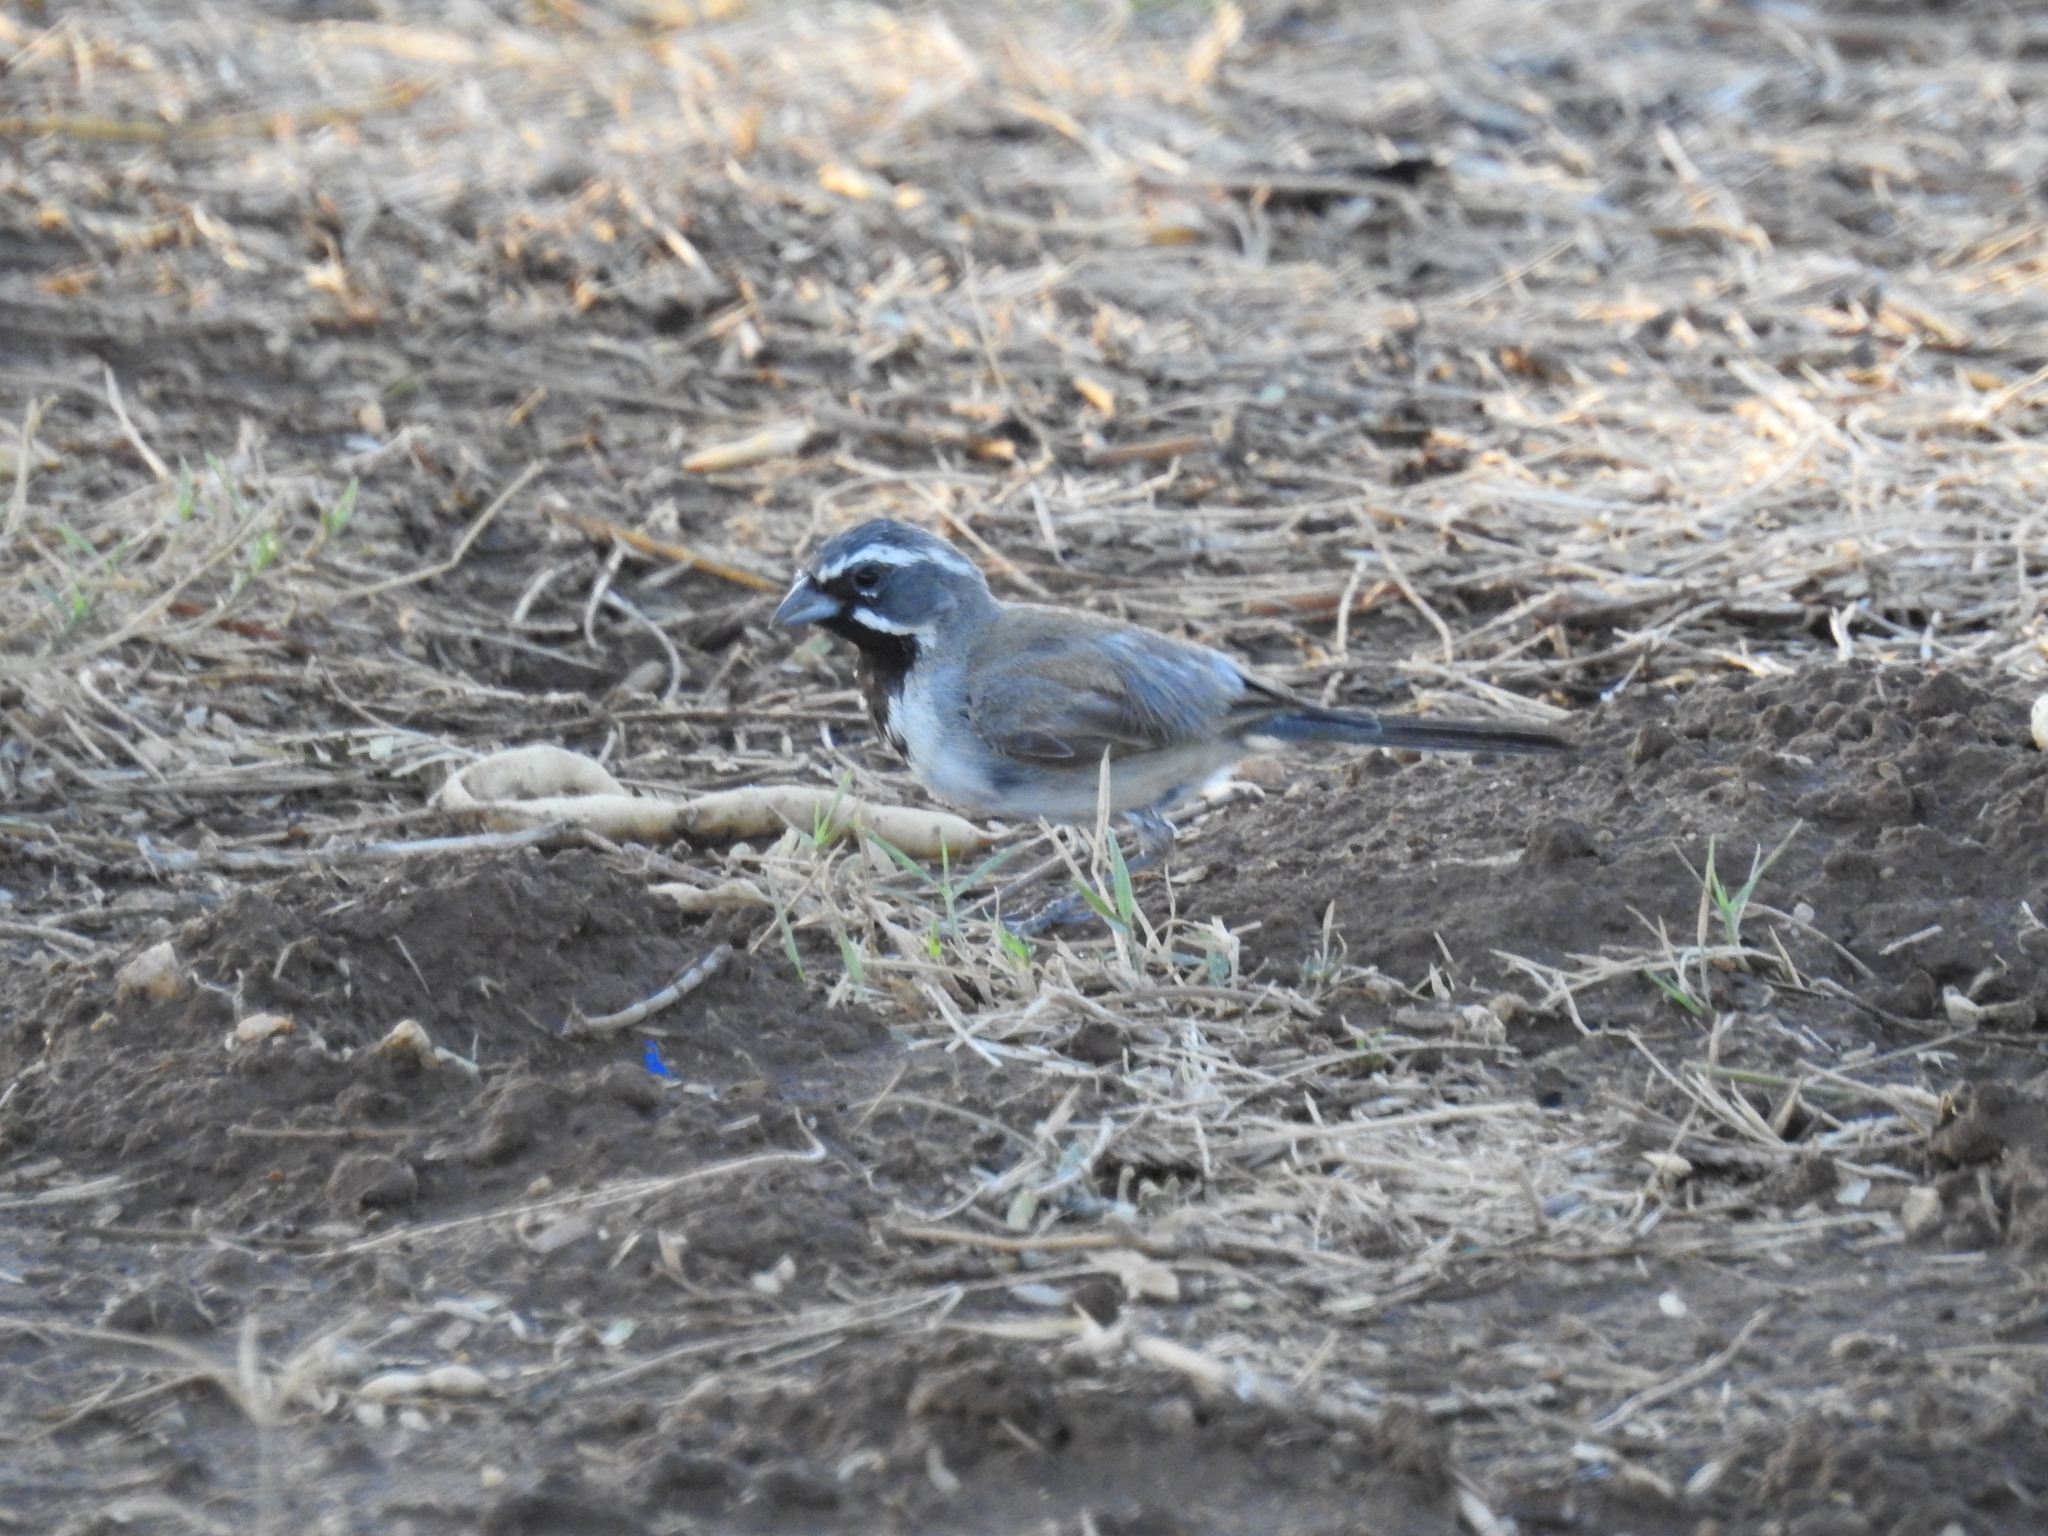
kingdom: Animalia
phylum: Chordata
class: Aves
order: Passeriformes
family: Passerellidae
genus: Amphispiza
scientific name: Amphispiza bilineata
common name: Black-throated sparrow
